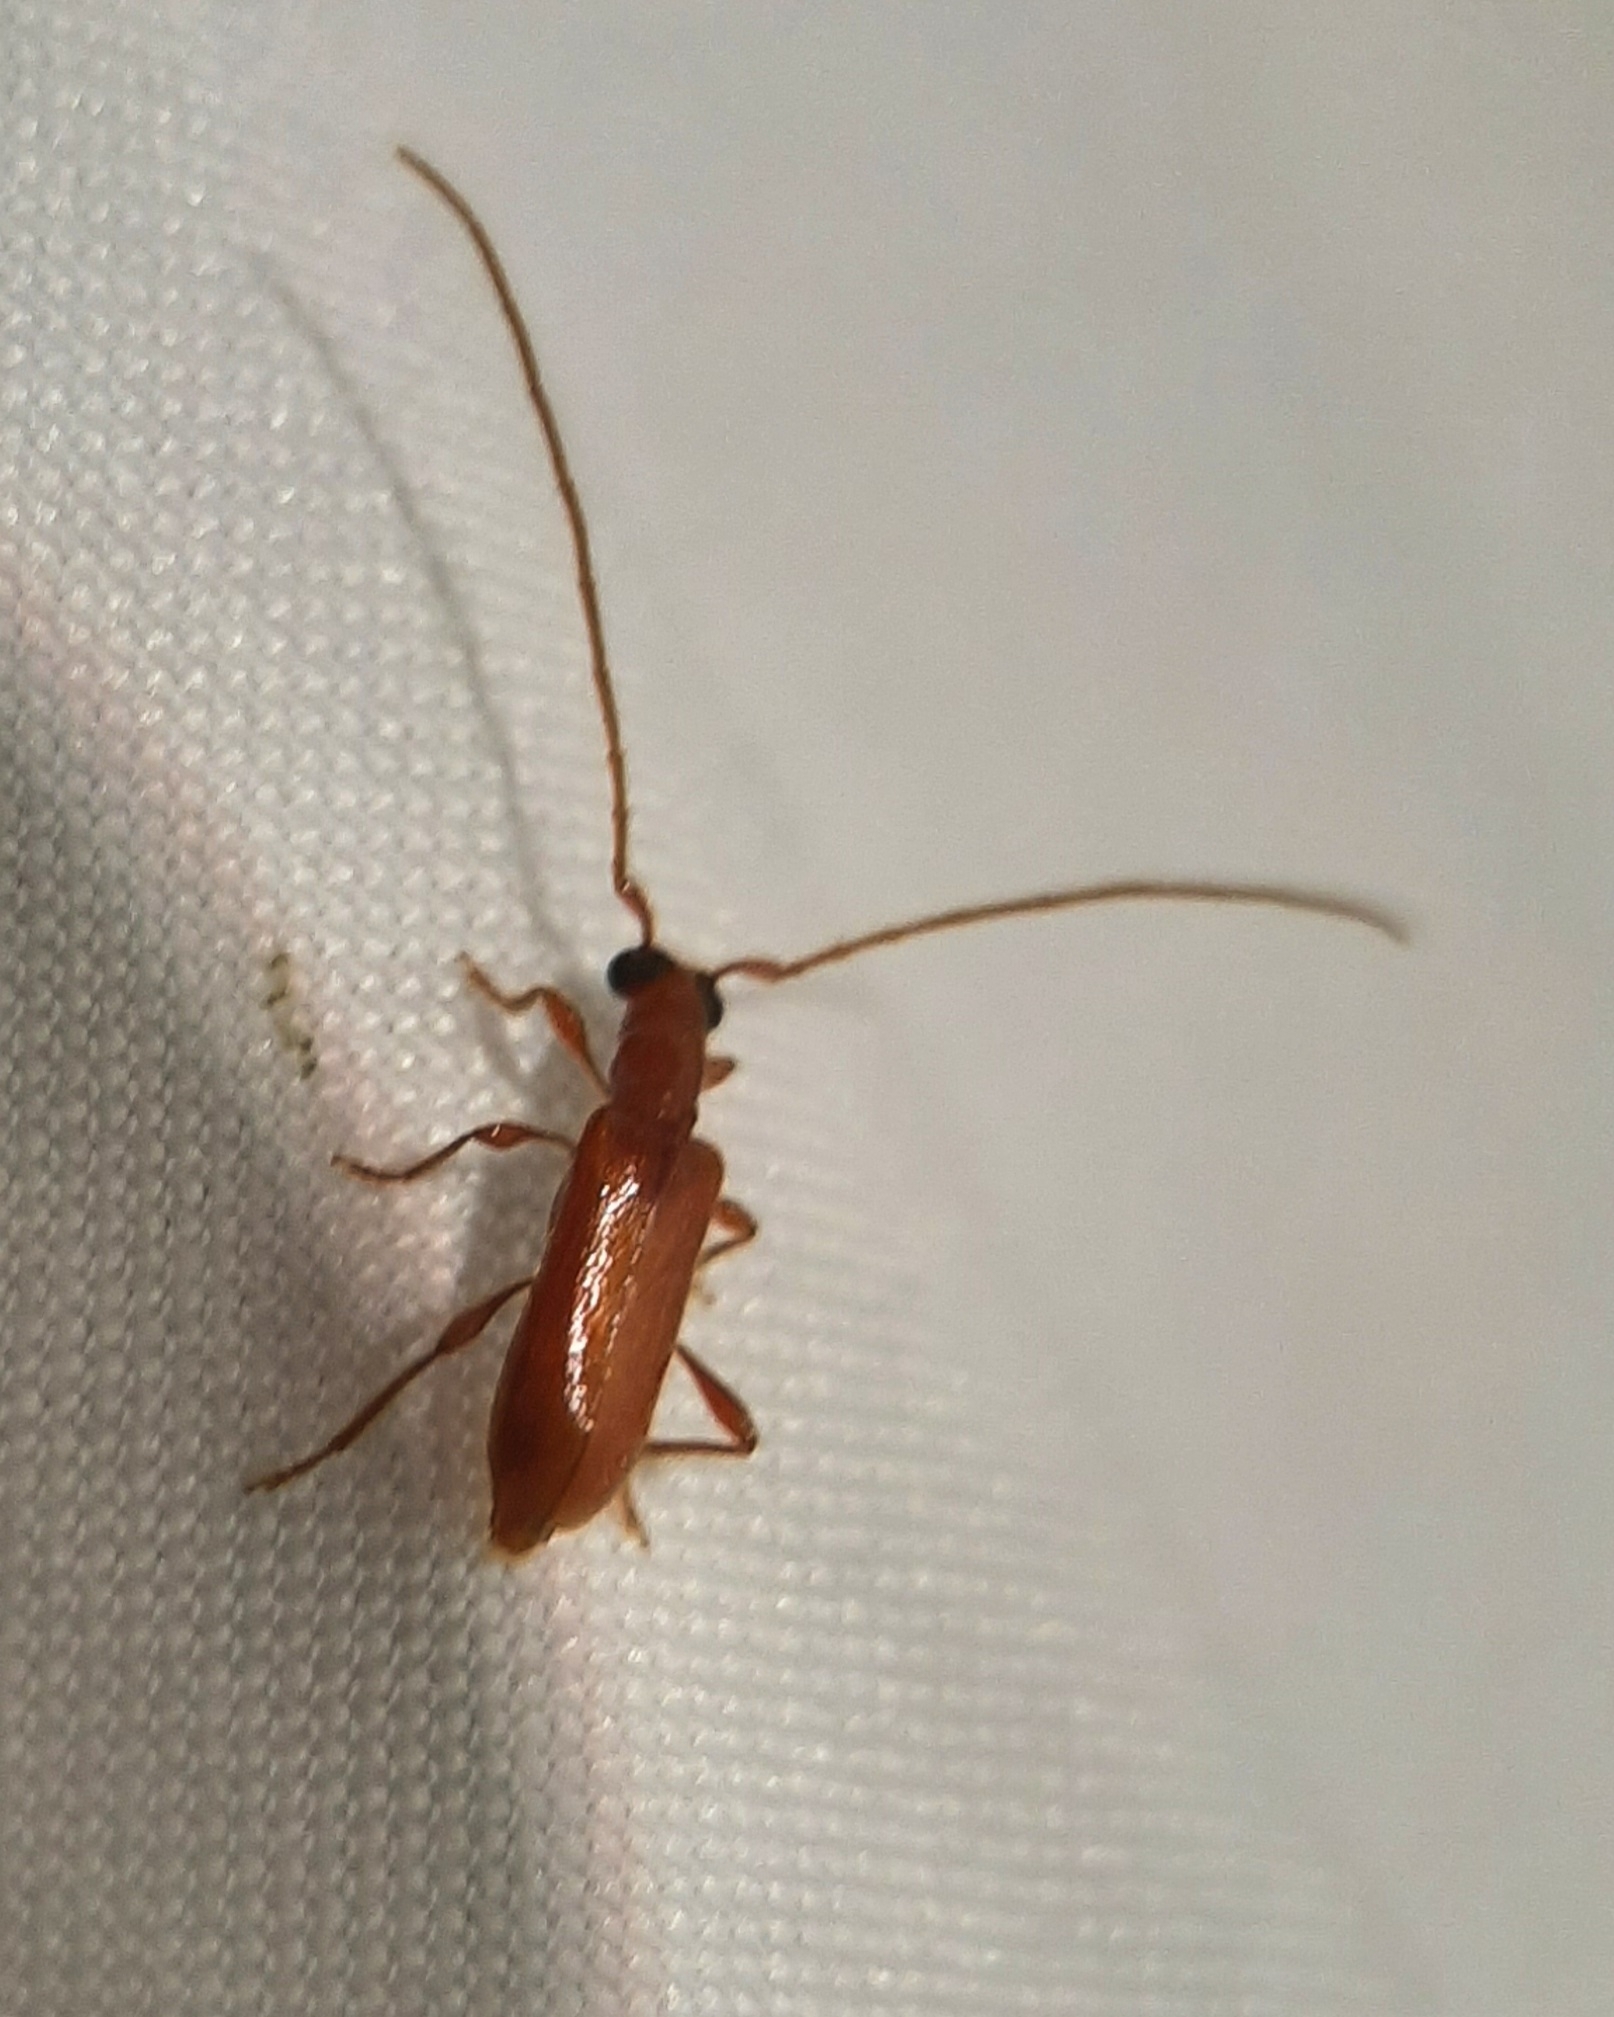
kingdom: Animalia
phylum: Arthropoda
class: Insecta
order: Coleoptera
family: Cerambycidae
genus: Obrium
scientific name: Obrium rufulum
